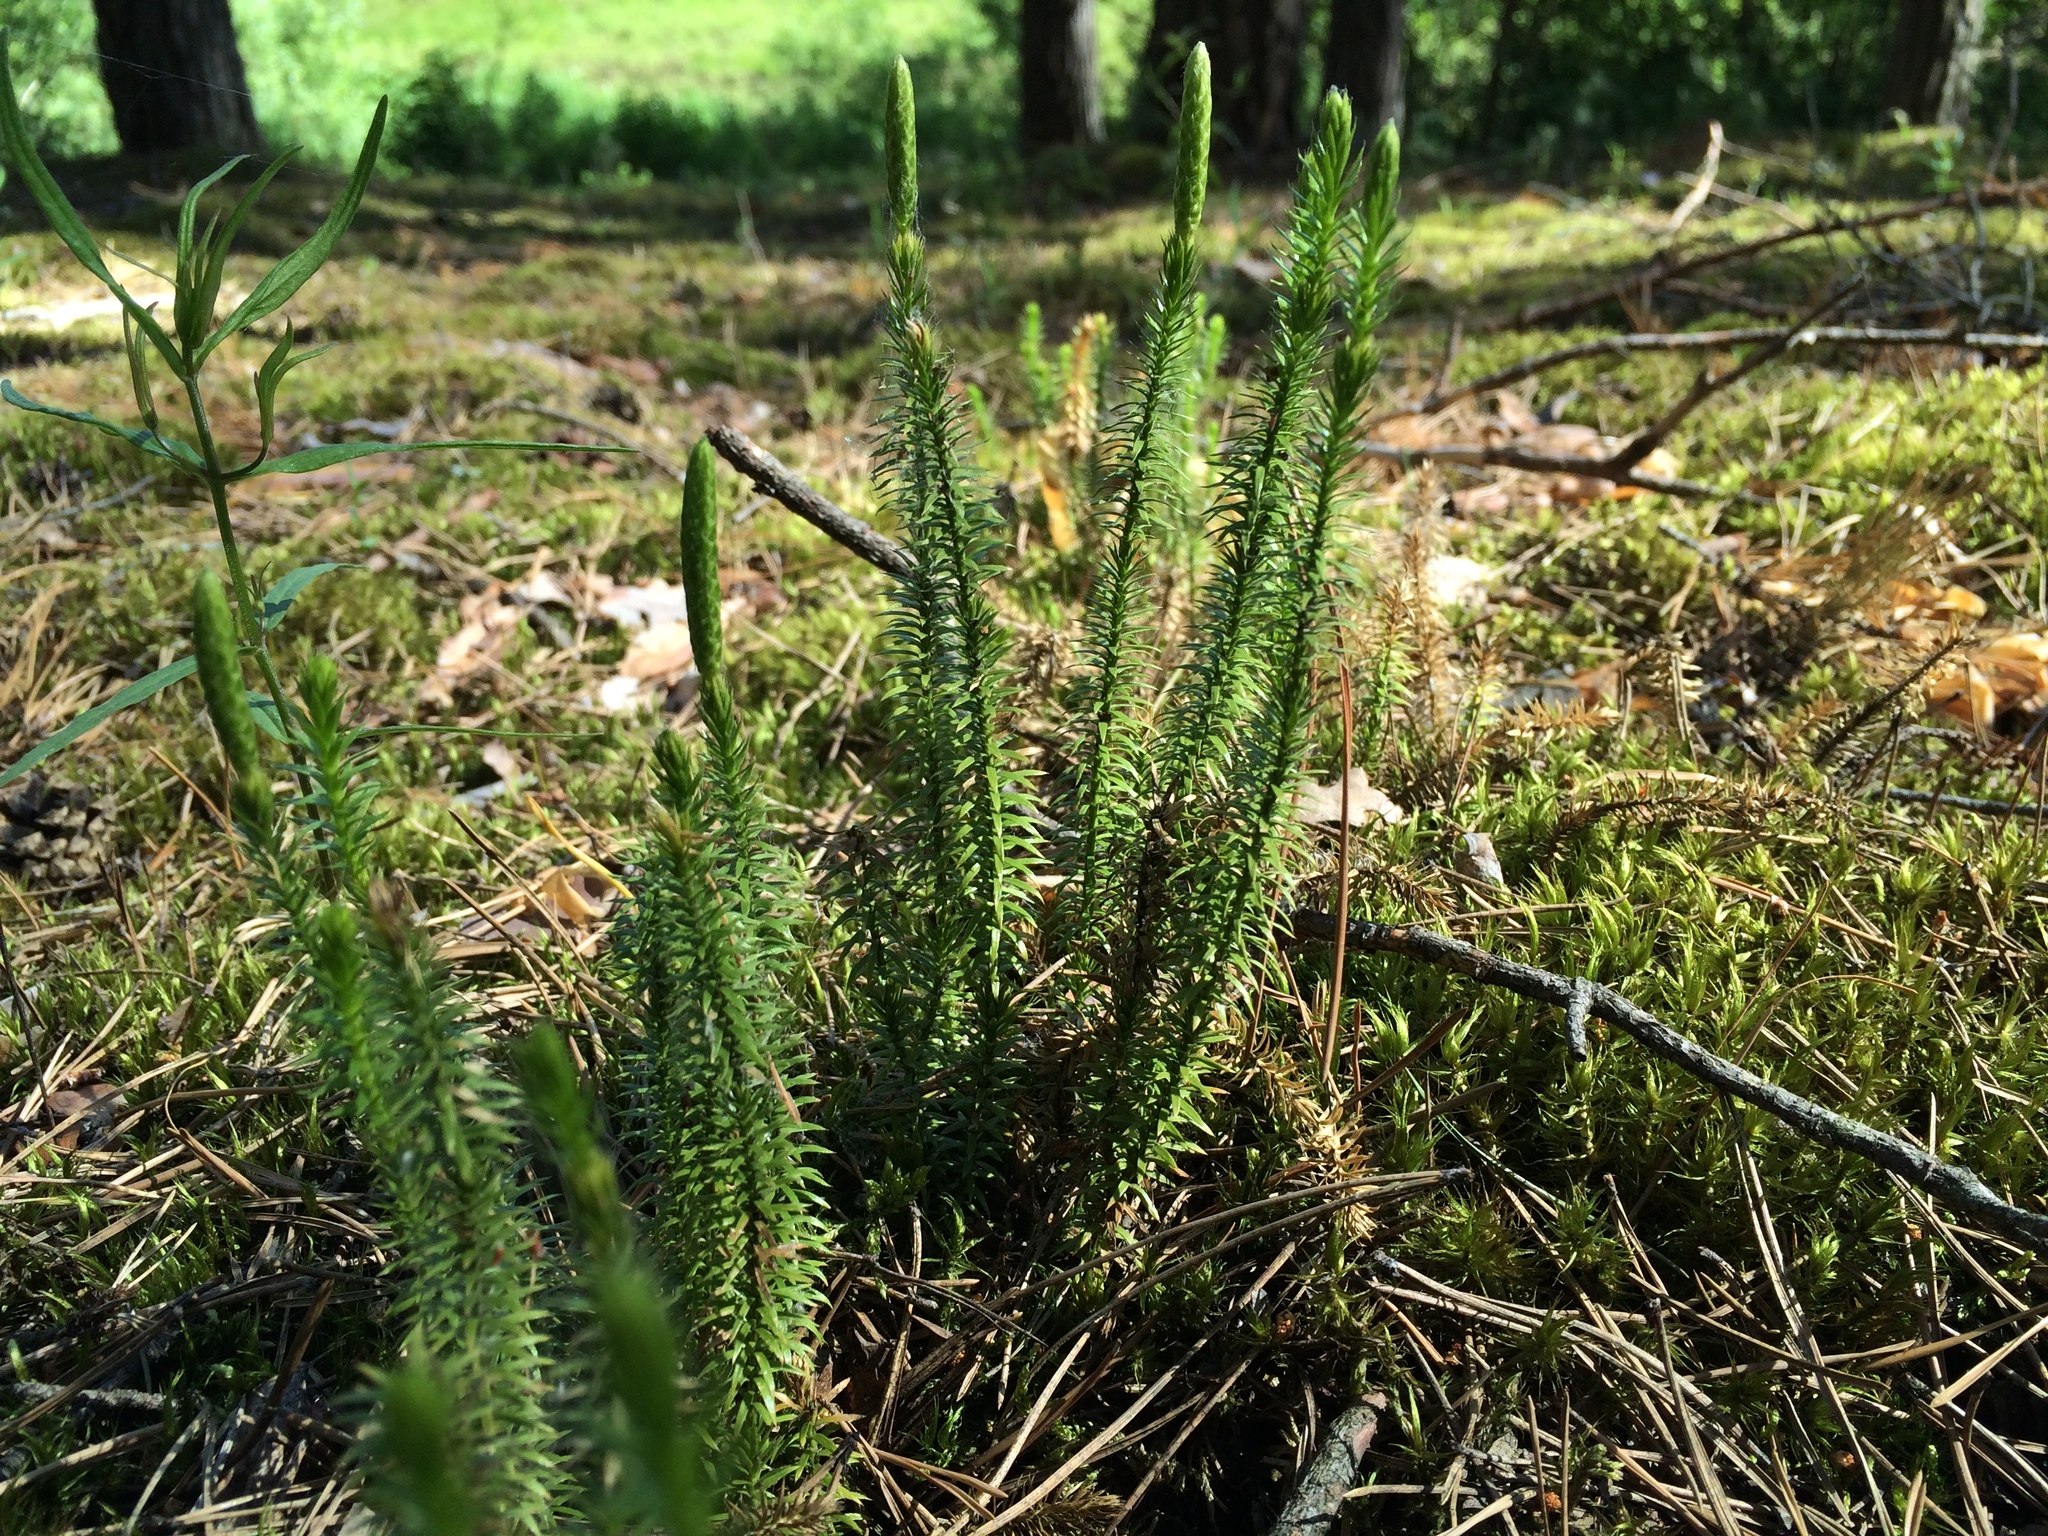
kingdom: Plantae
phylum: Tracheophyta
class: Lycopodiopsida
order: Lycopodiales
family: Lycopodiaceae
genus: Spinulum
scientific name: Spinulum annotinum
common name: Interrupted club-moss
